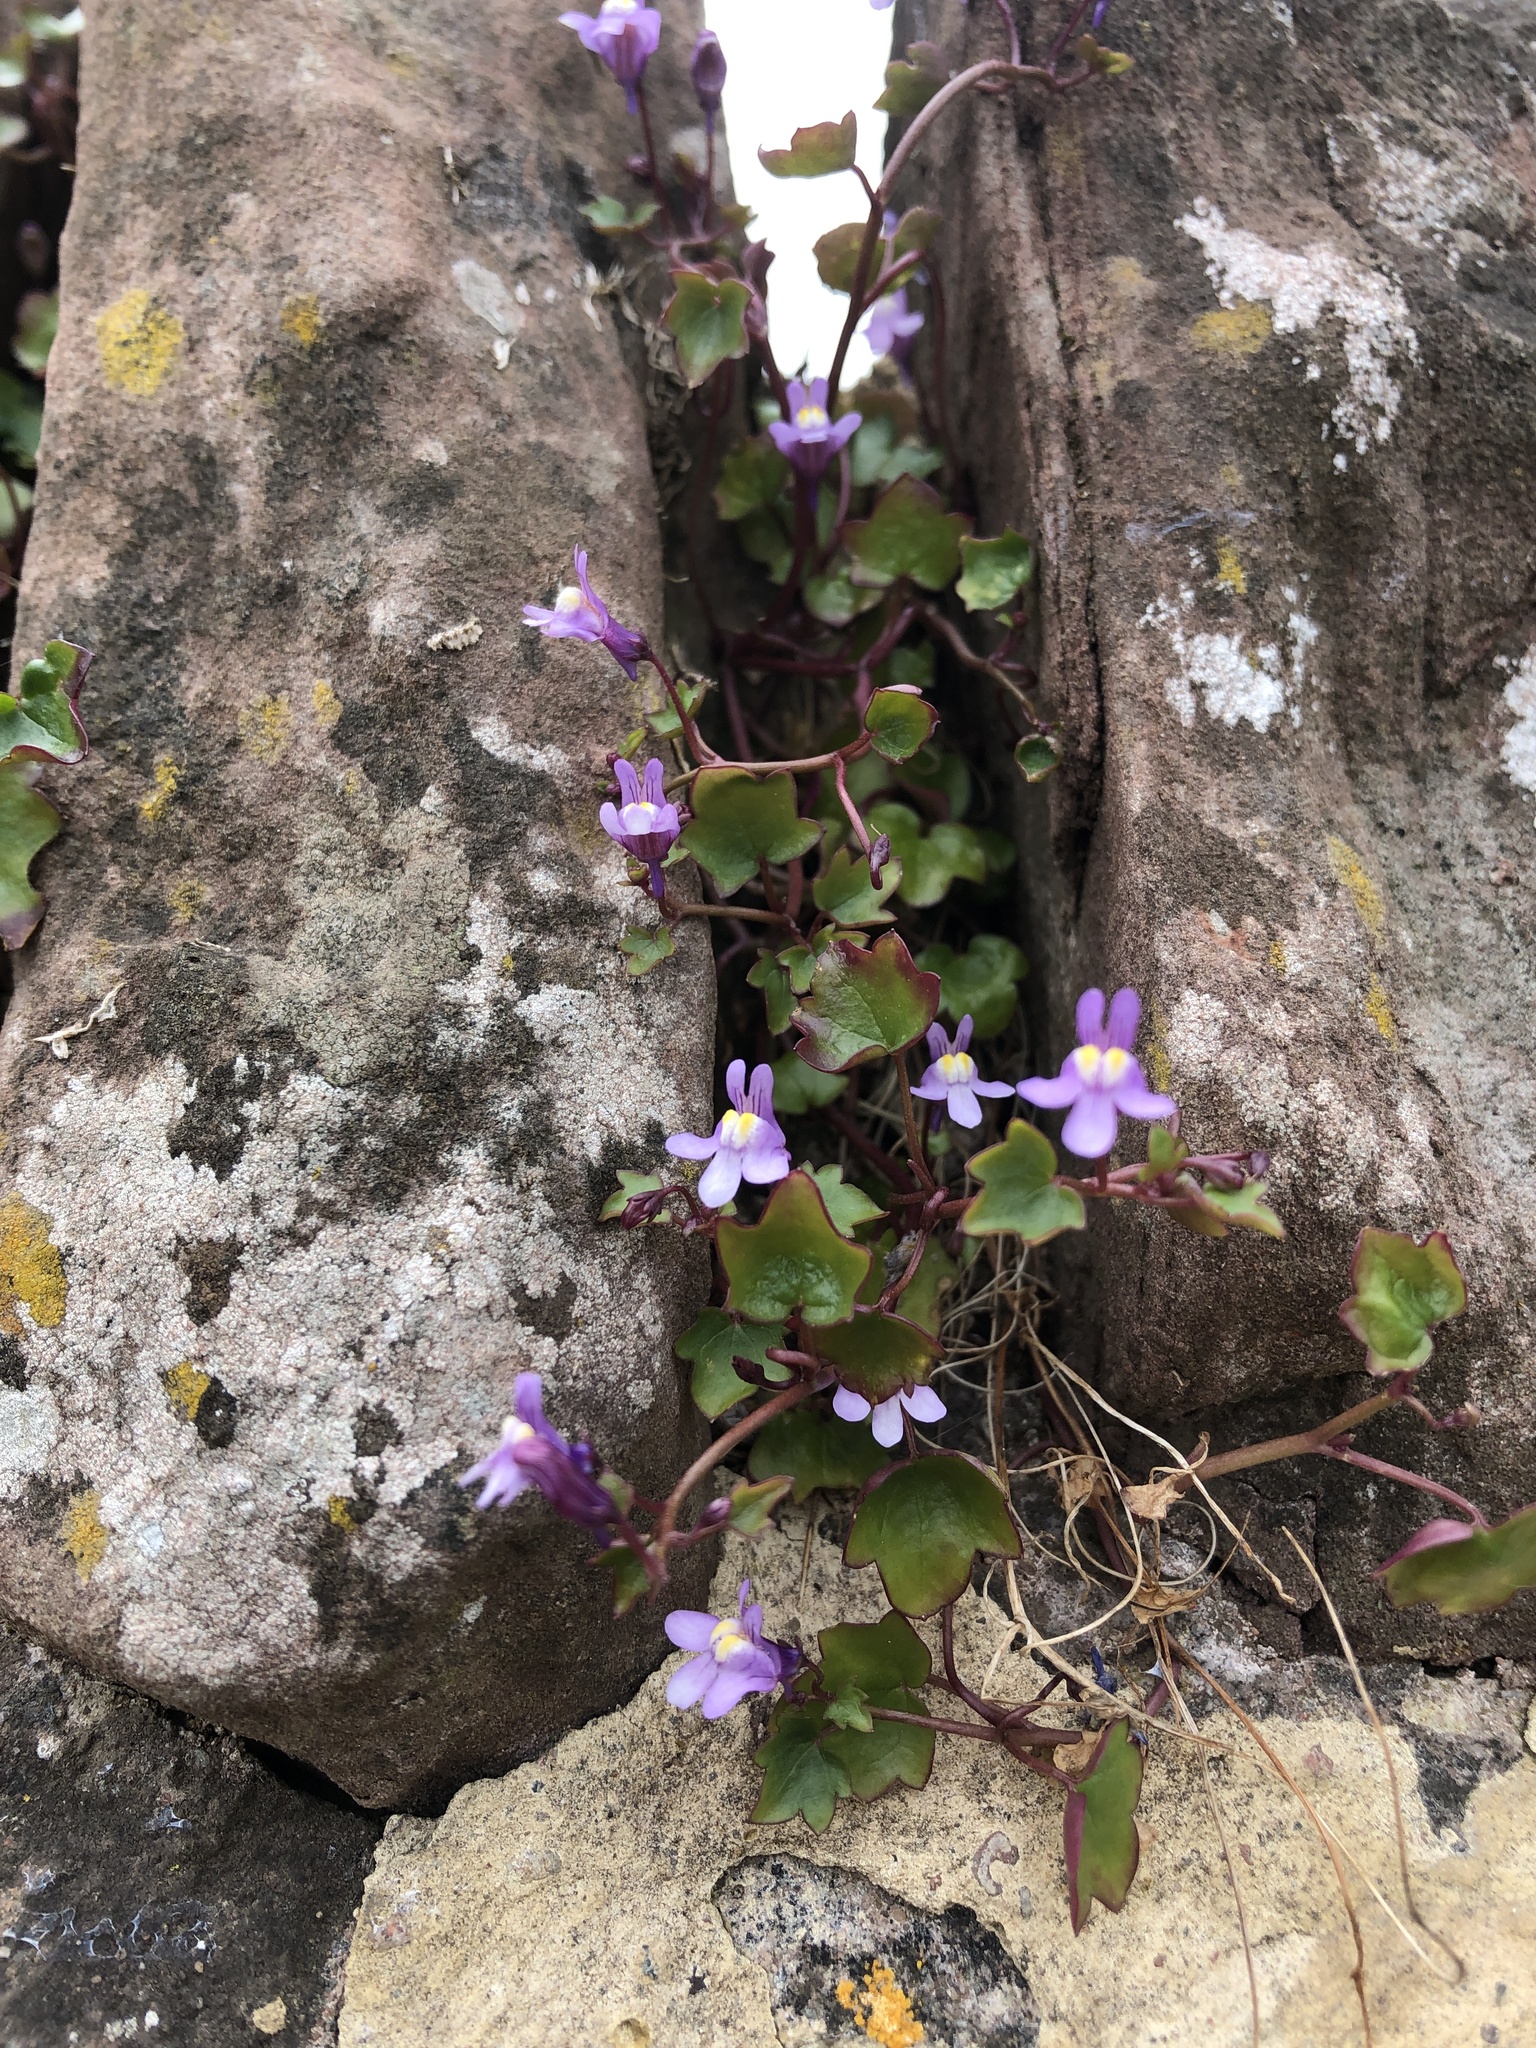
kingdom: Plantae
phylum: Tracheophyta
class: Magnoliopsida
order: Lamiales
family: Plantaginaceae
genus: Cymbalaria
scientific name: Cymbalaria muralis
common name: Ivy-leaved toadflax
